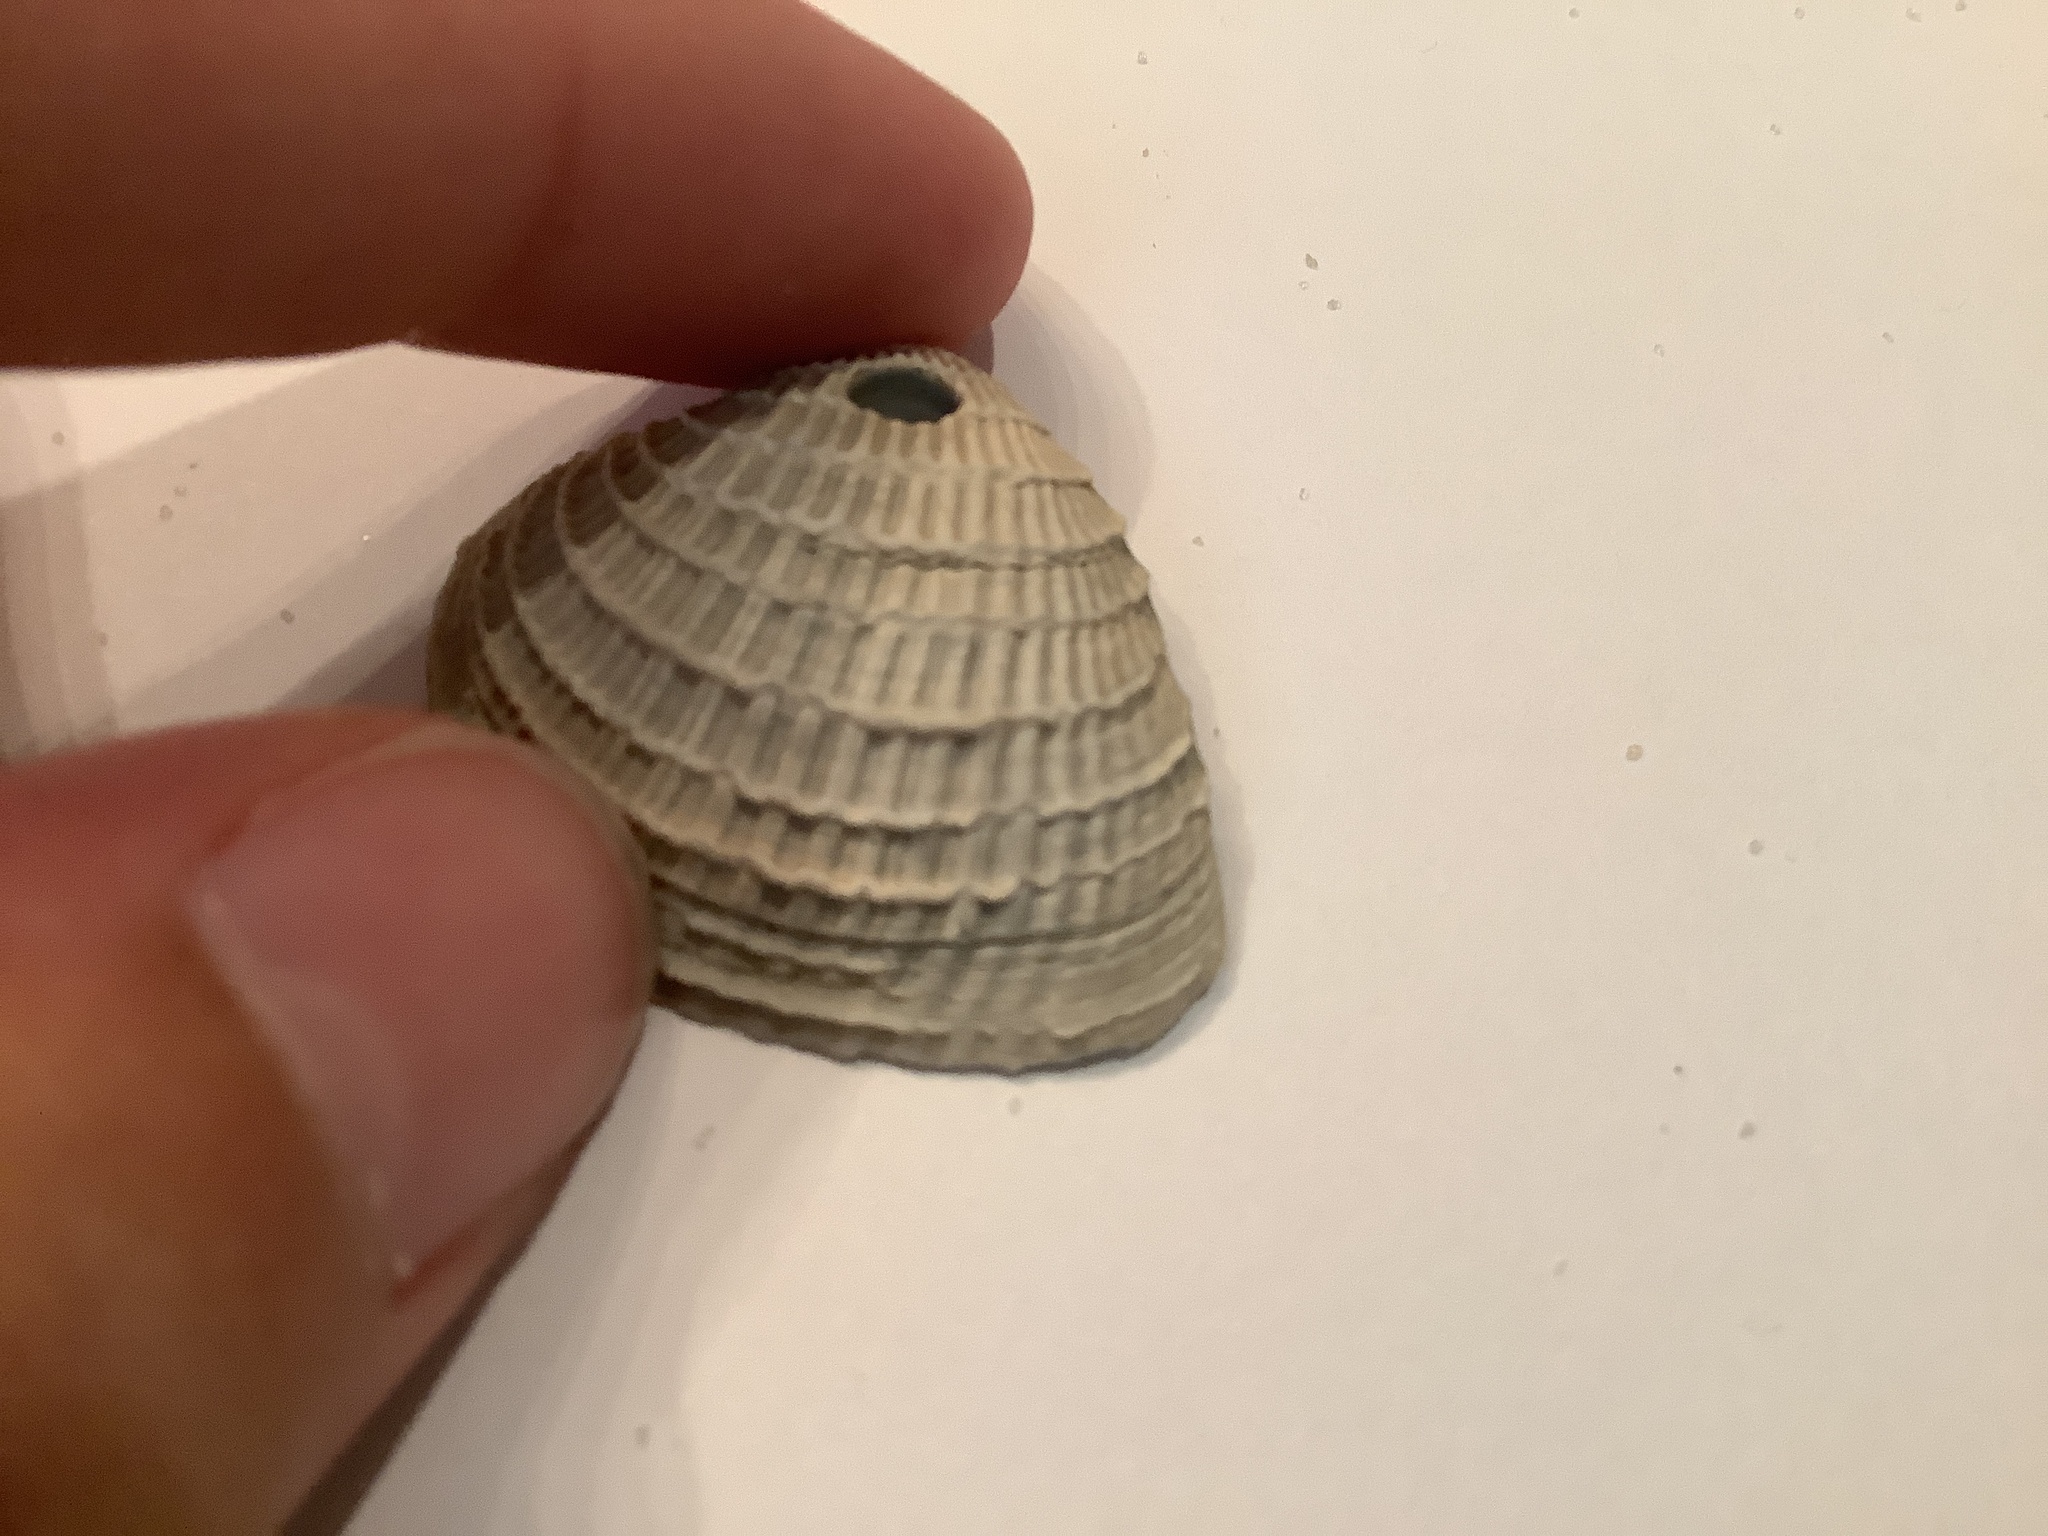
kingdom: Animalia
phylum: Mollusca
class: Bivalvia
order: Venerida
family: Veneridae
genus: Chione
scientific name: Chione elevata
